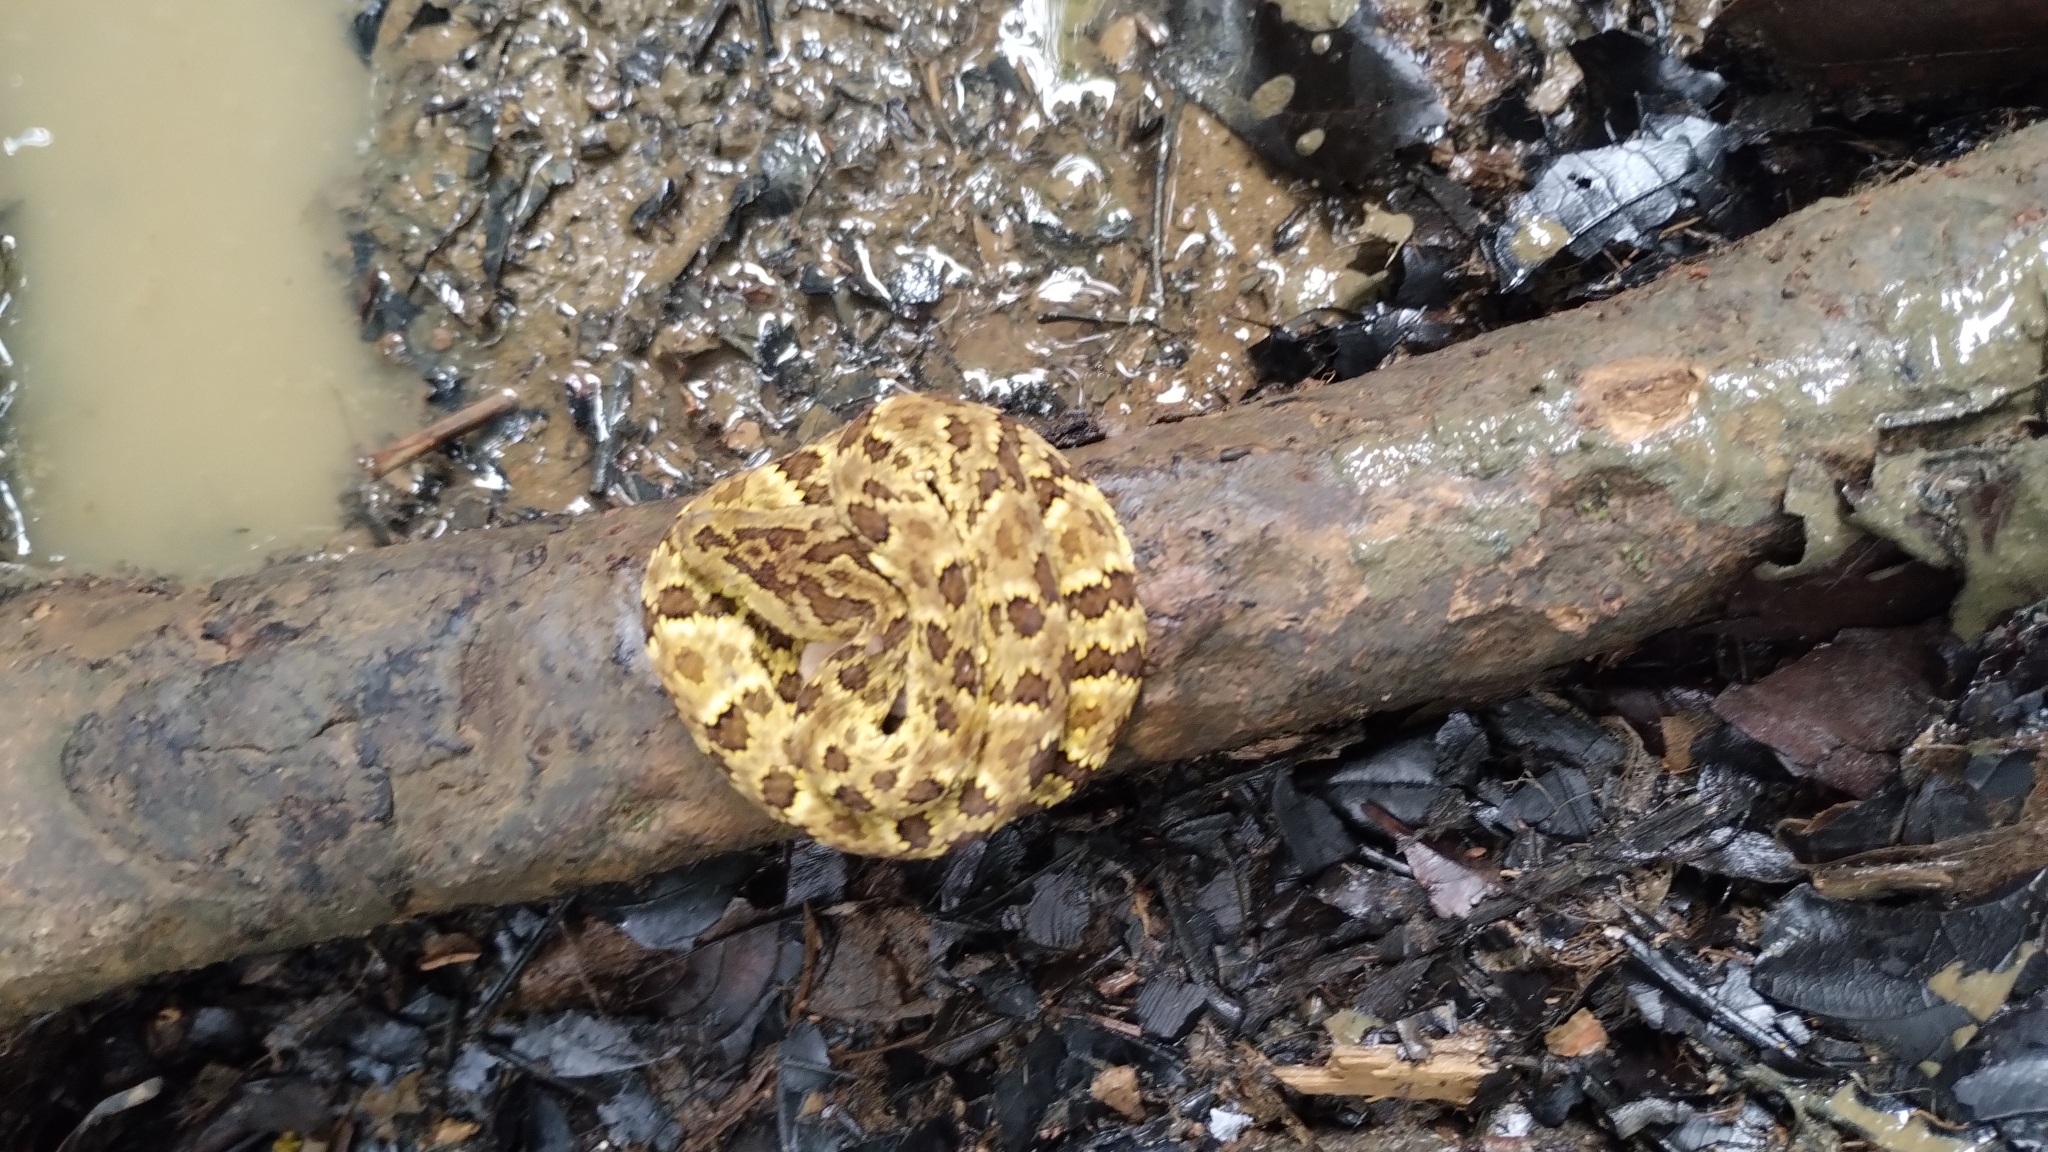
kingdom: Animalia
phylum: Chordata
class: Squamata
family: Viperidae
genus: Bothrops
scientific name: Bothrops punctatus
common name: Chocoan forest pit viper
